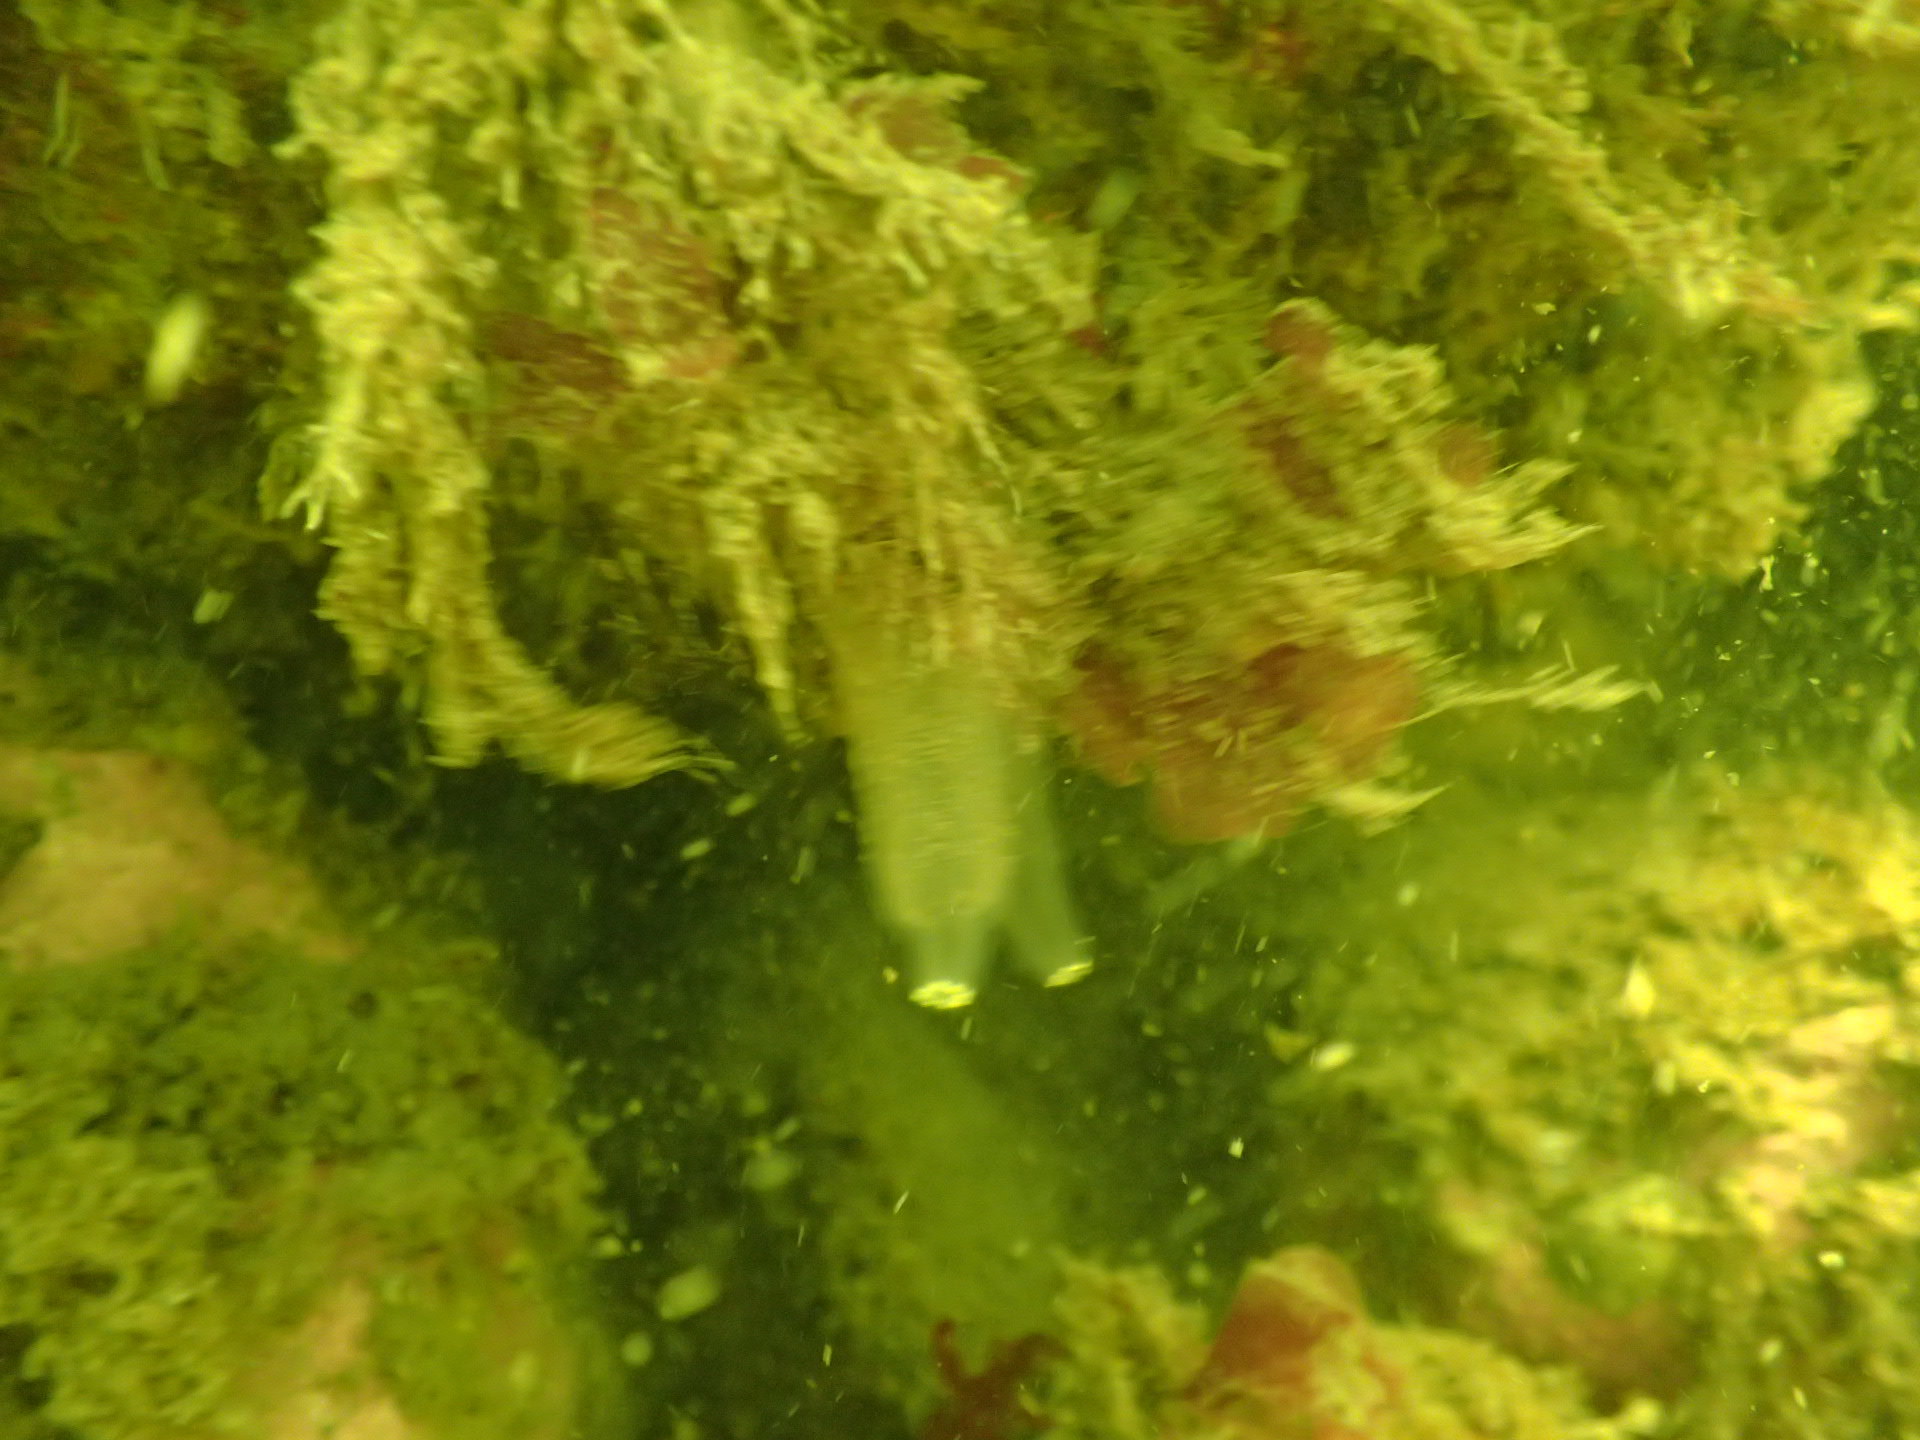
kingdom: Animalia
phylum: Chordata
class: Ascidiacea
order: Phlebobranchia
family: Cionidae
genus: Ciona
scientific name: Ciona intestinalis
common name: Vase tunicate
